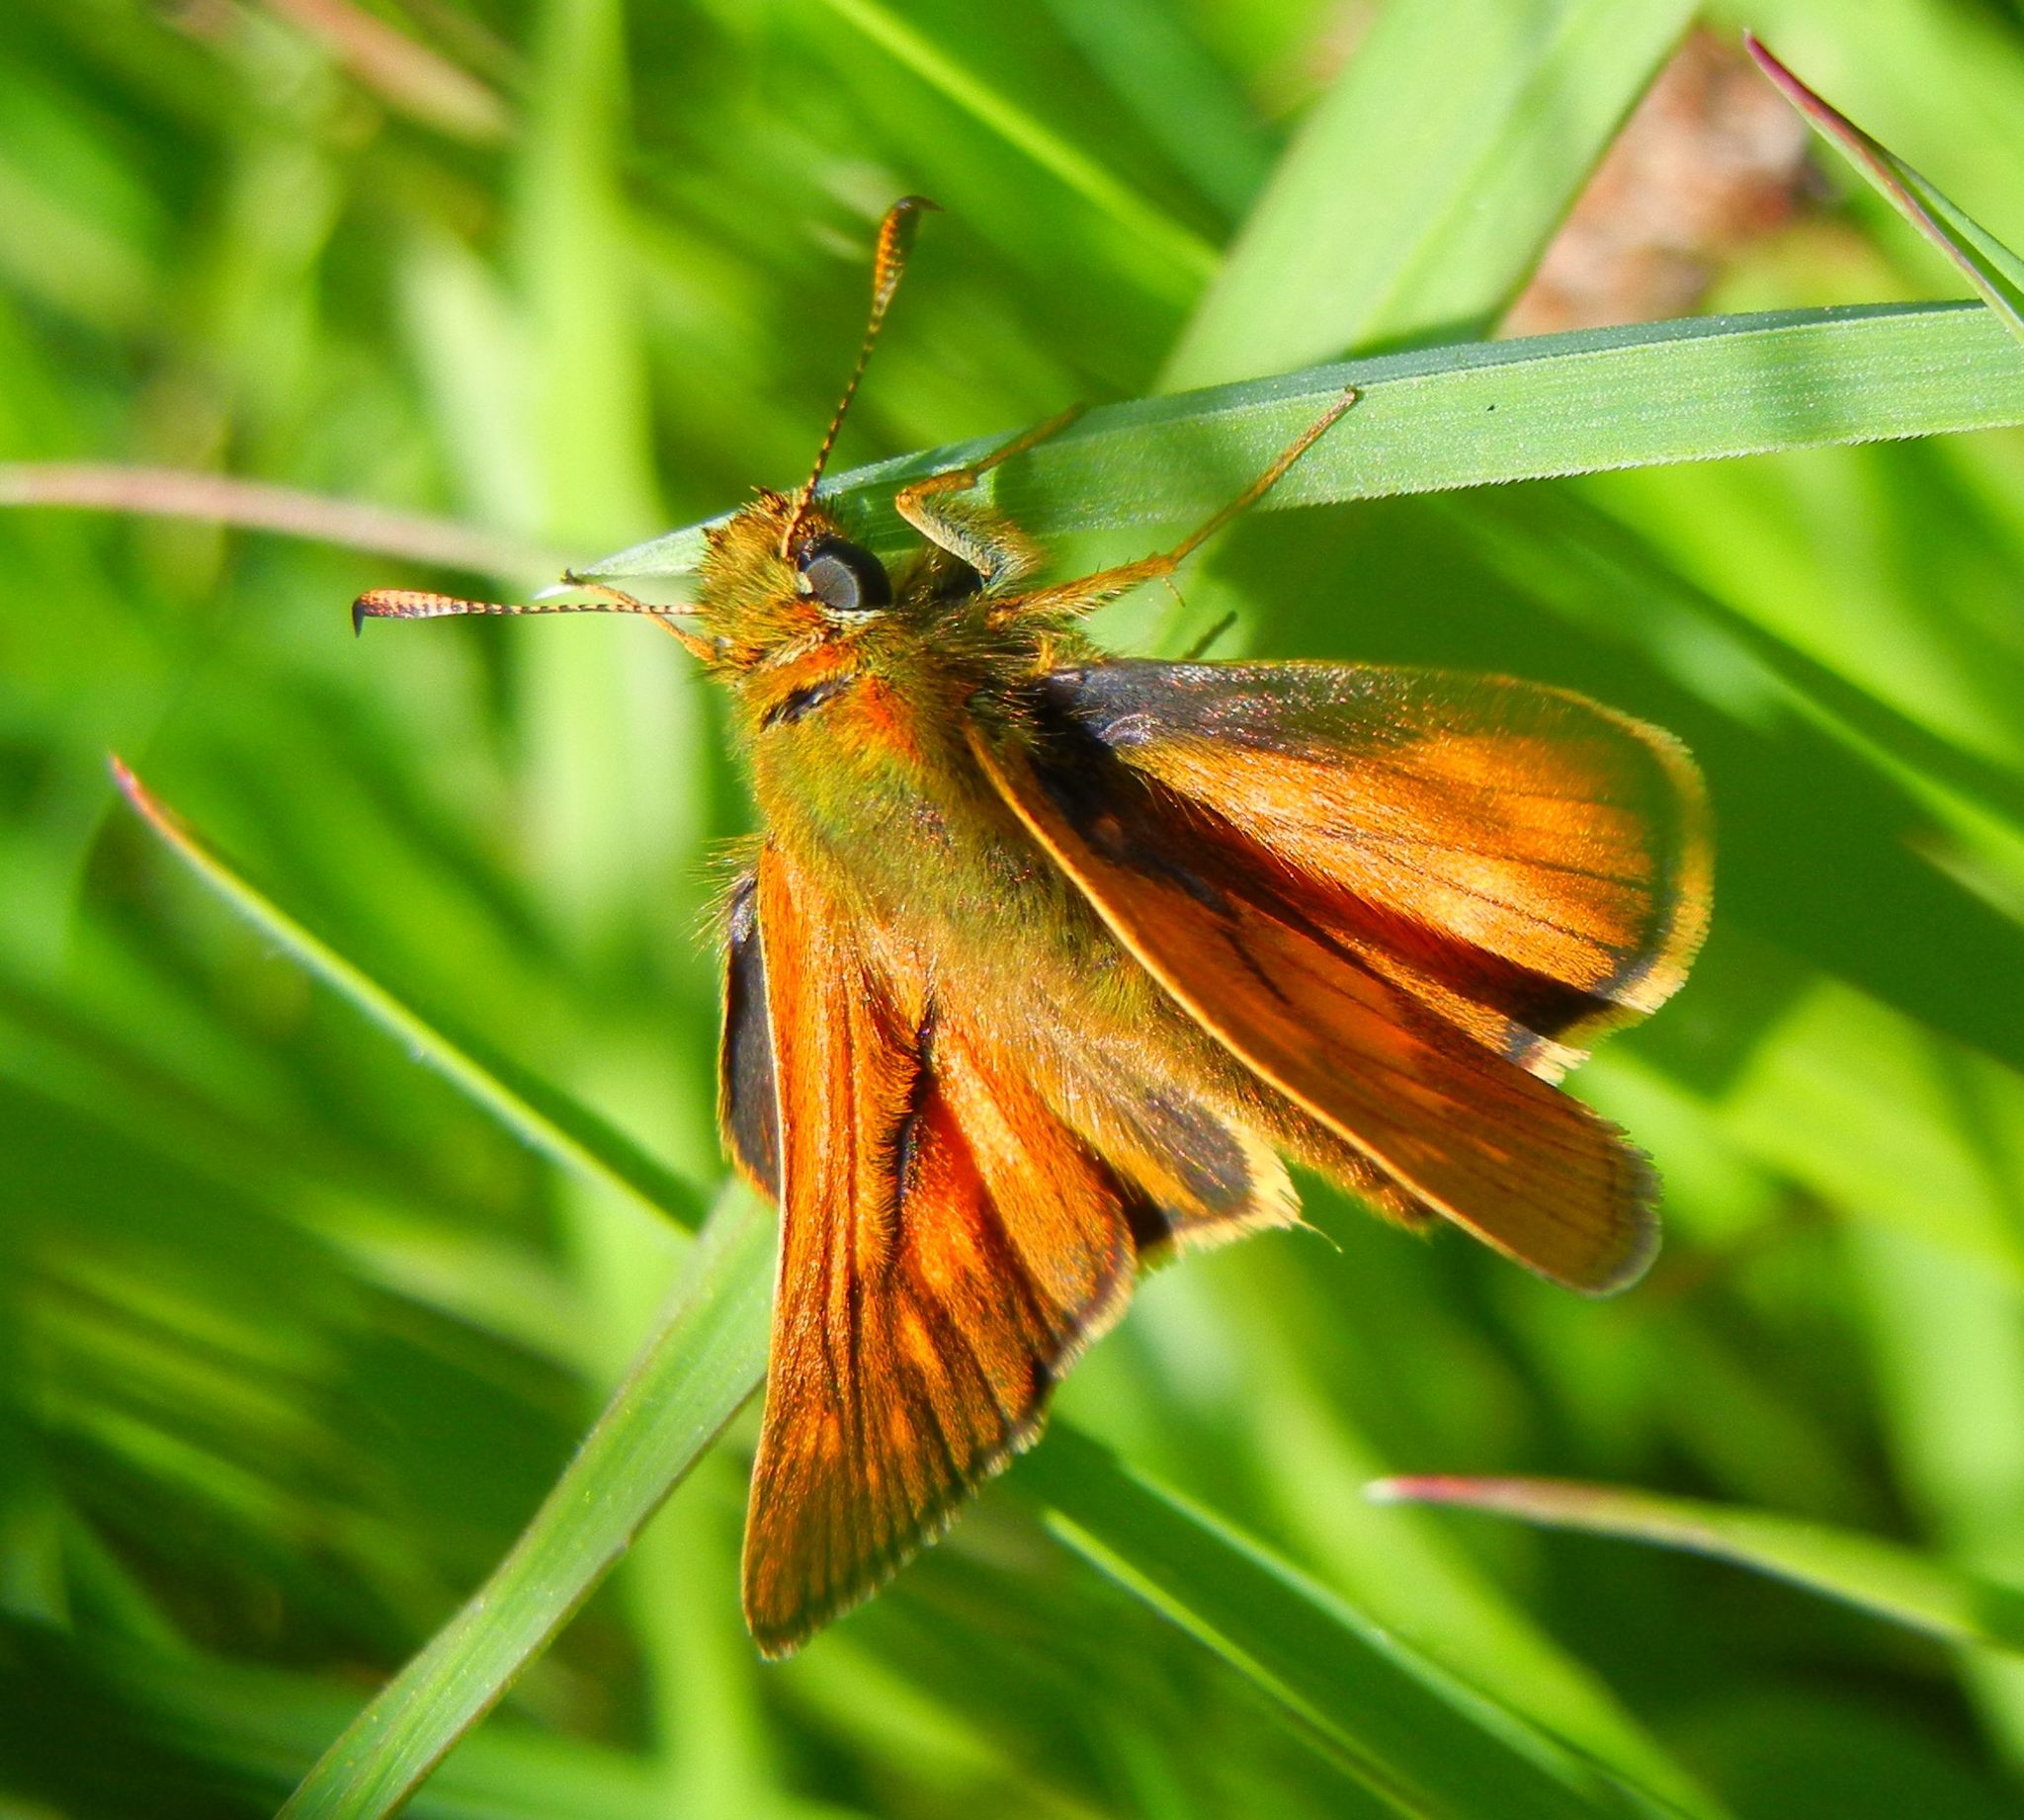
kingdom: Animalia
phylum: Arthropoda
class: Insecta
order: Lepidoptera
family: Hesperiidae
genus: Ochlodes
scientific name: Ochlodes venata
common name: Large skipper
